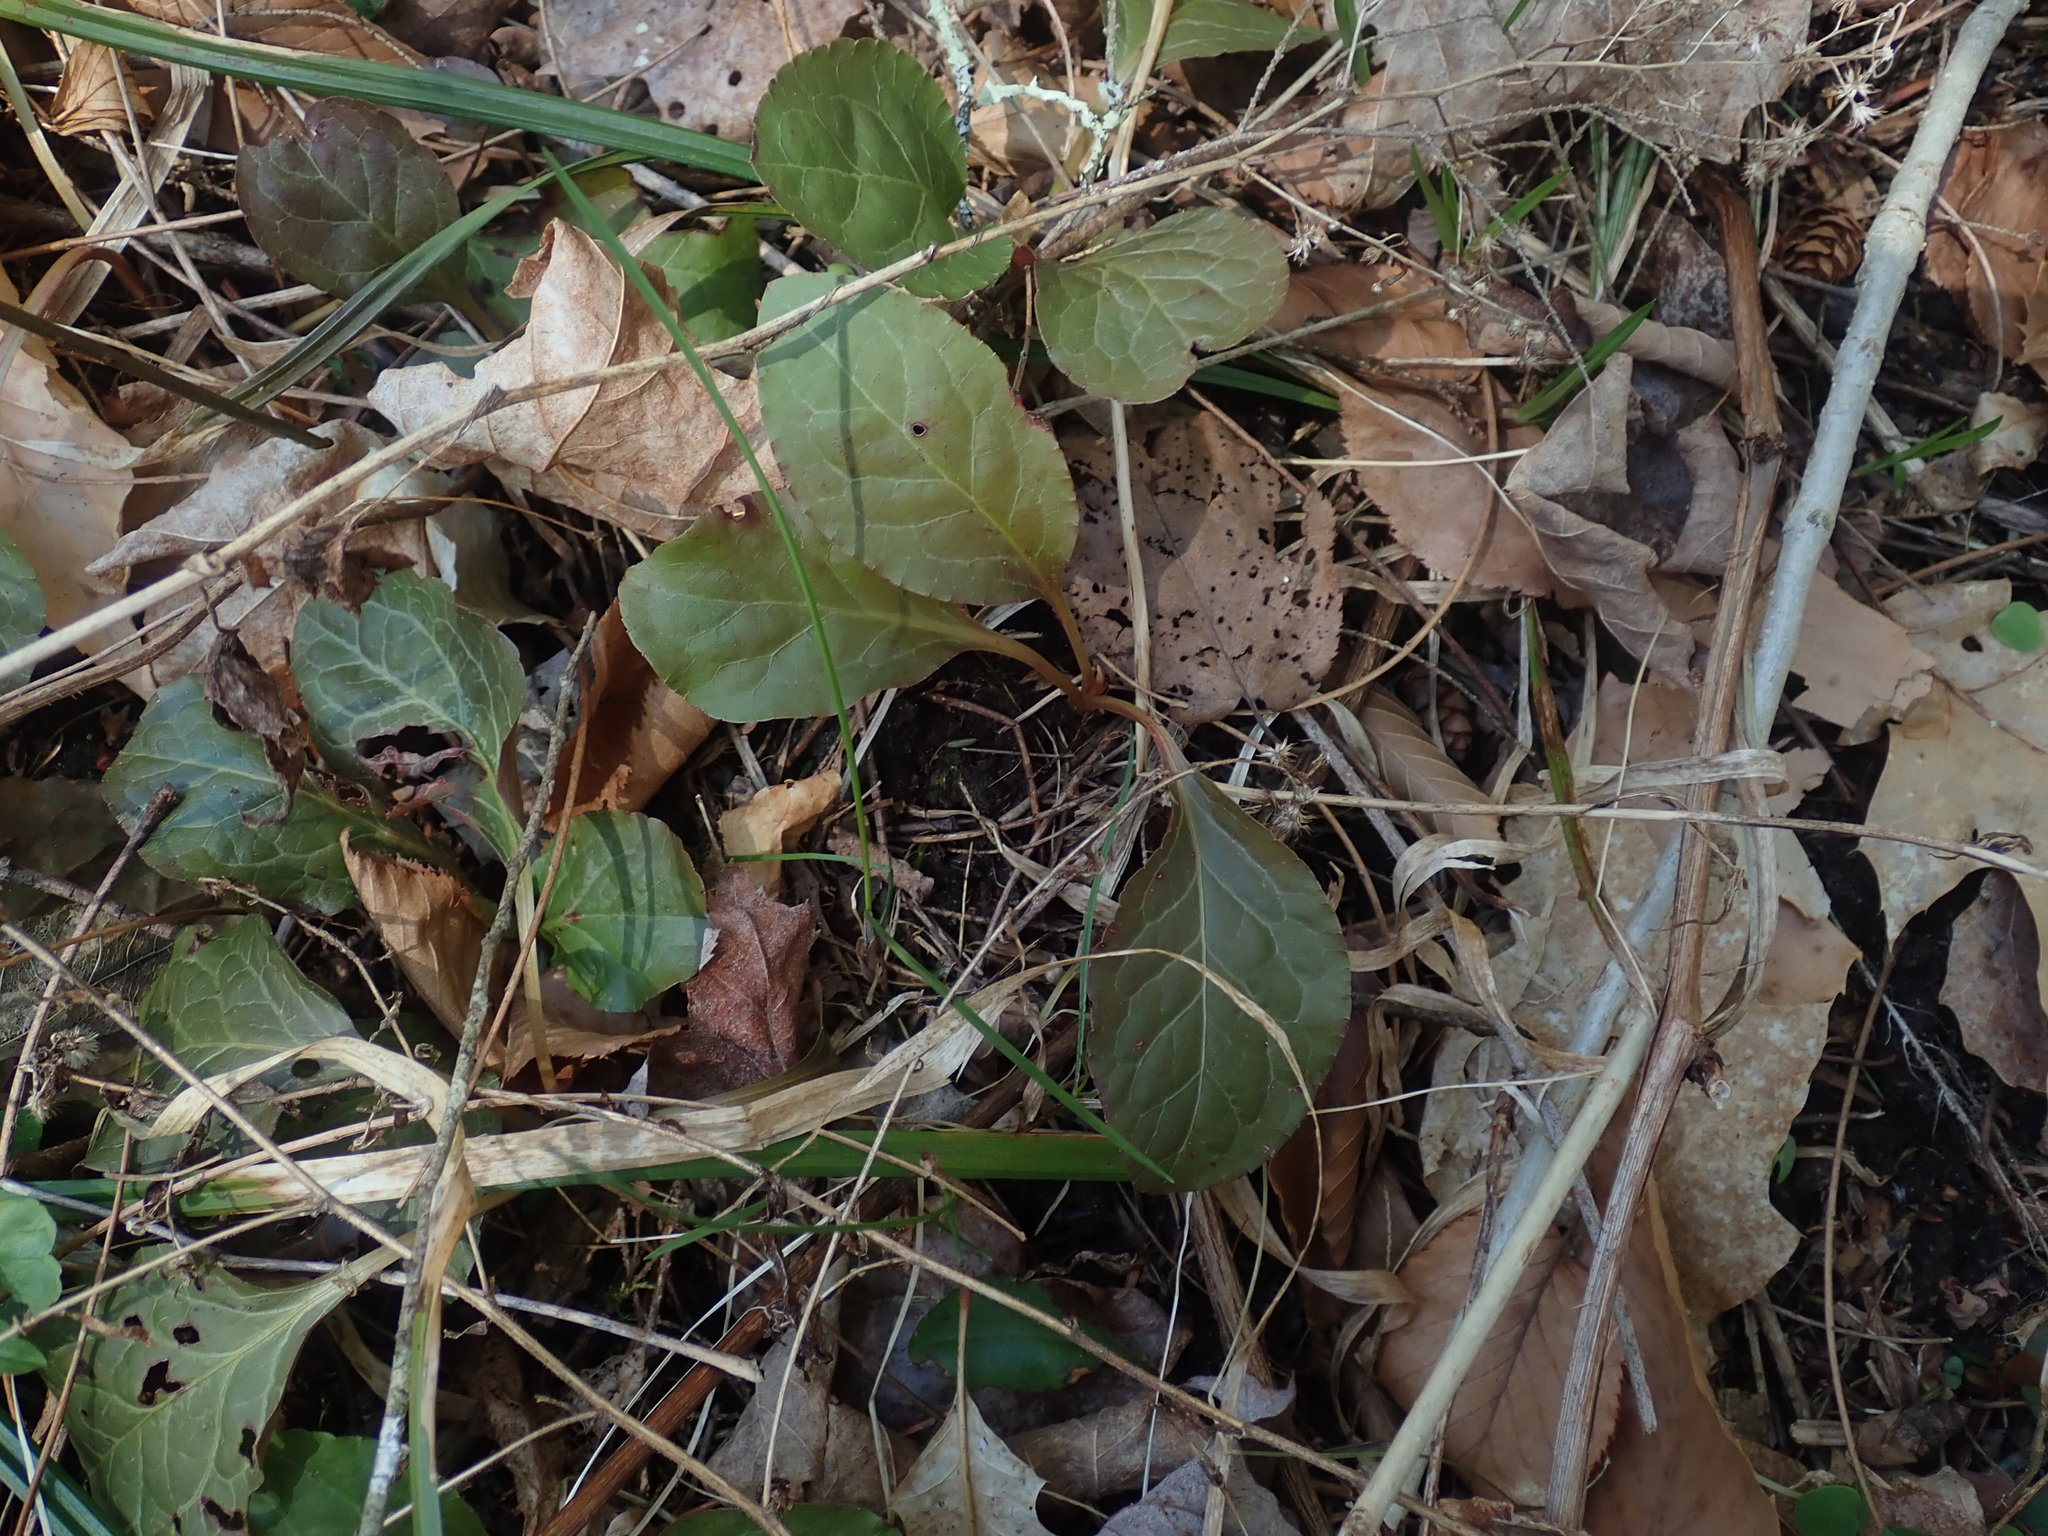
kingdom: Plantae
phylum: Tracheophyta
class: Magnoliopsida
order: Ericales
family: Ericaceae
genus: Pyrola
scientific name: Pyrola elliptica
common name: Shinleaf
